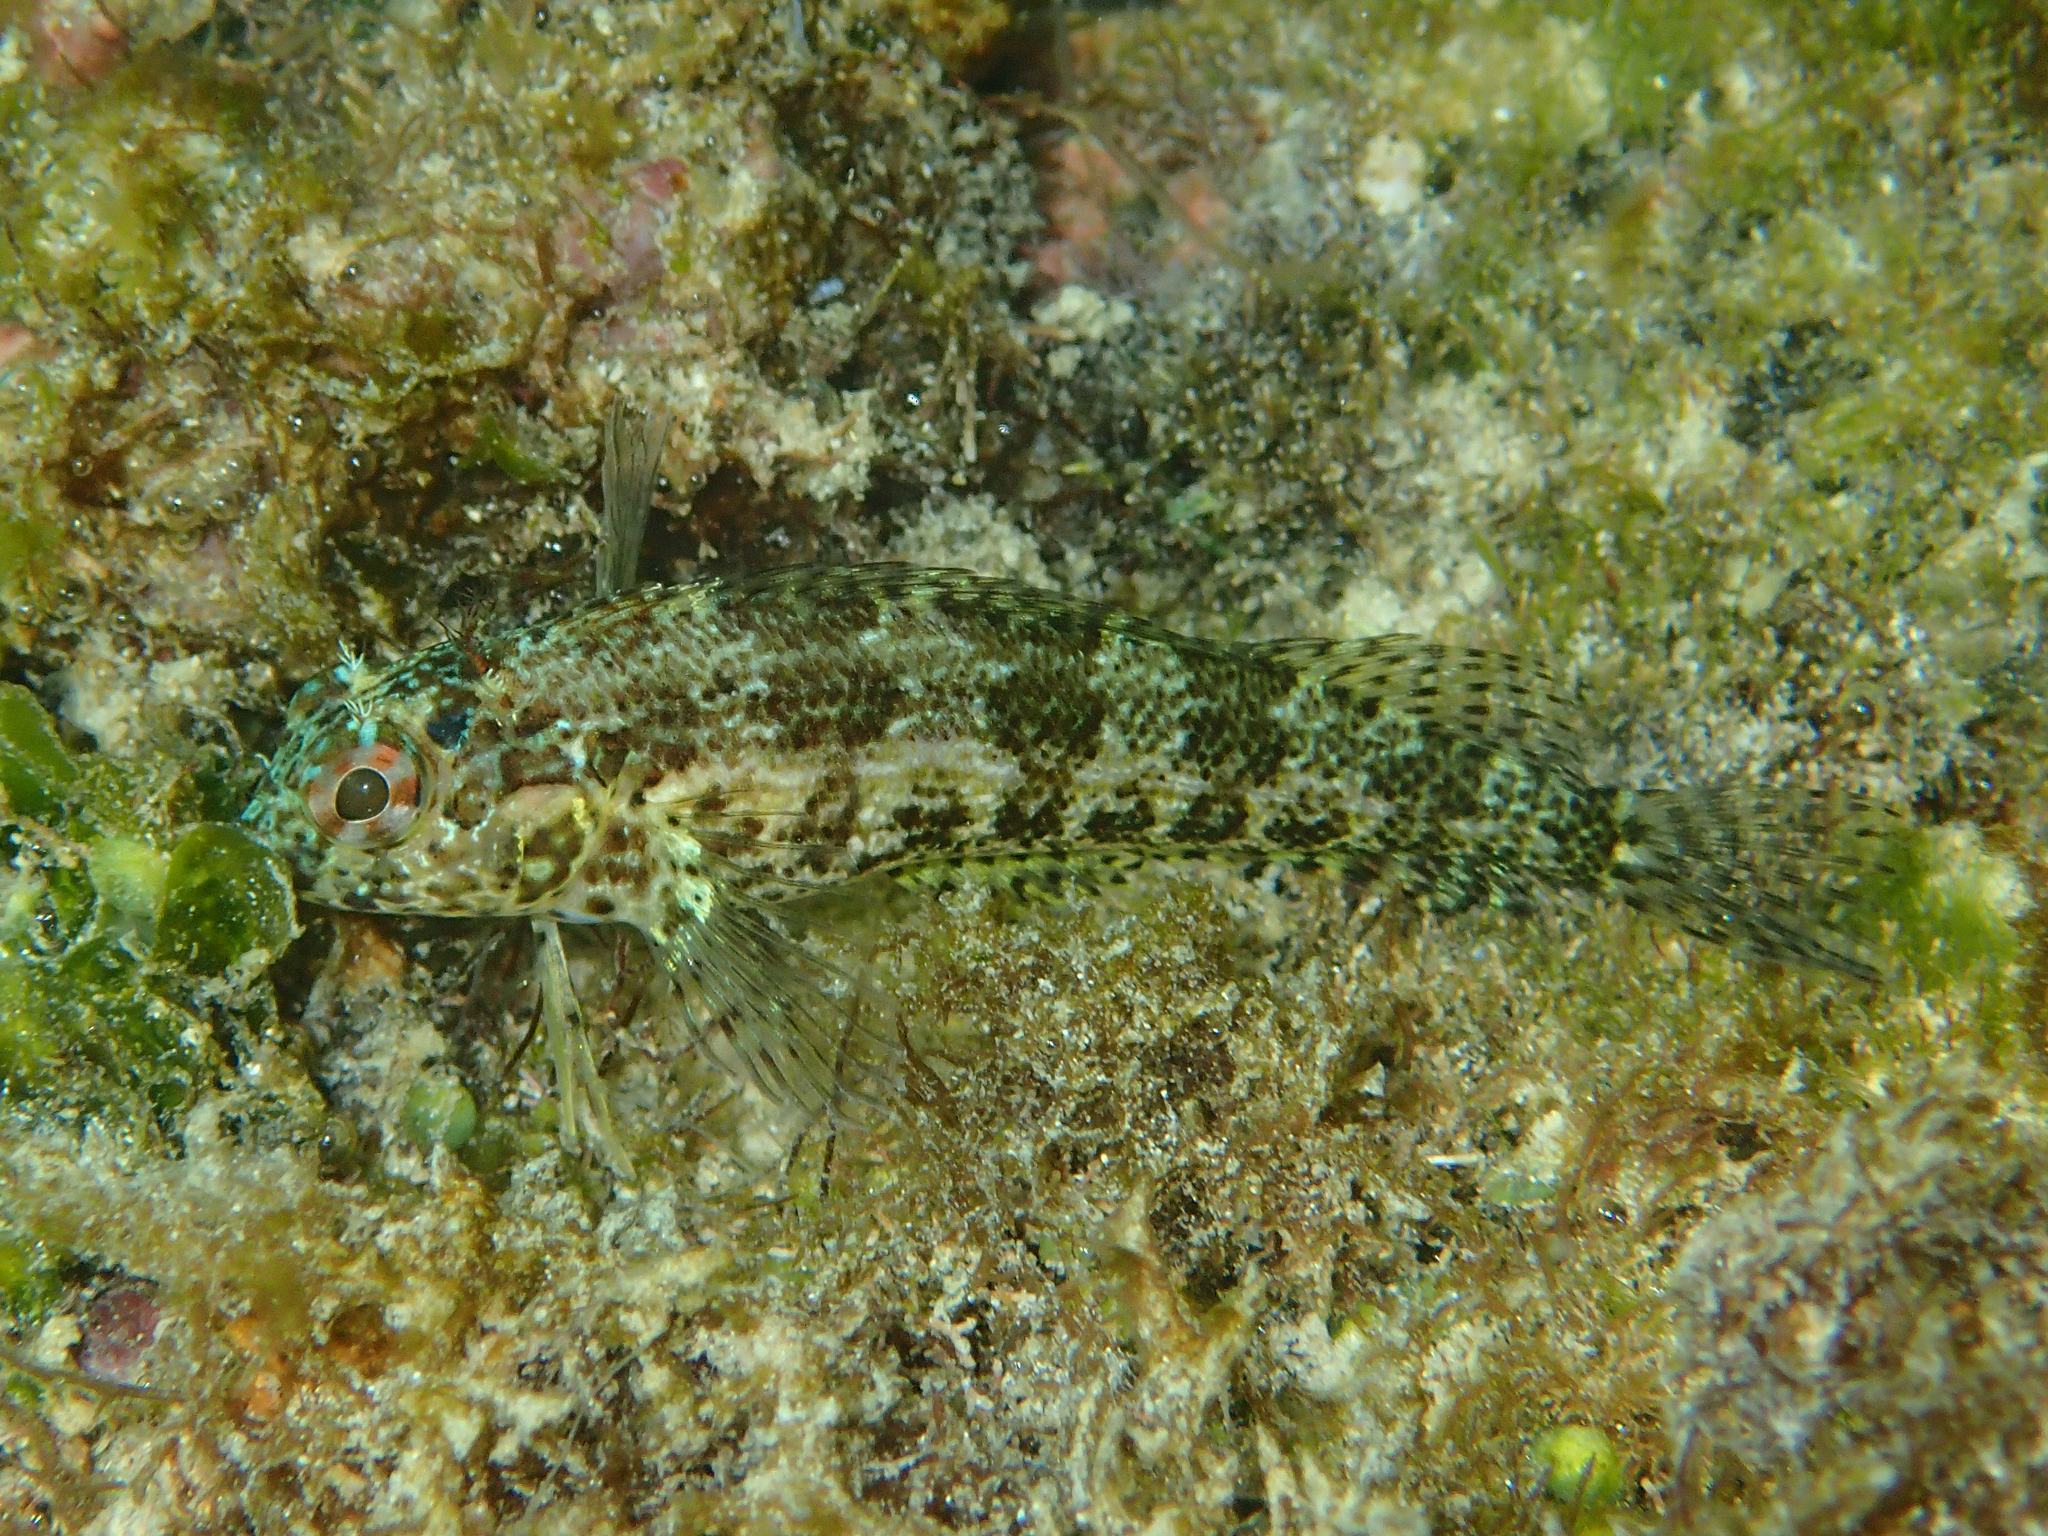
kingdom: Animalia
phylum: Chordata
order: Perciformes
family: Labrisomidae
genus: Malacoctenus
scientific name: Malacoctenus tetranemus
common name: Chameleon clinid
